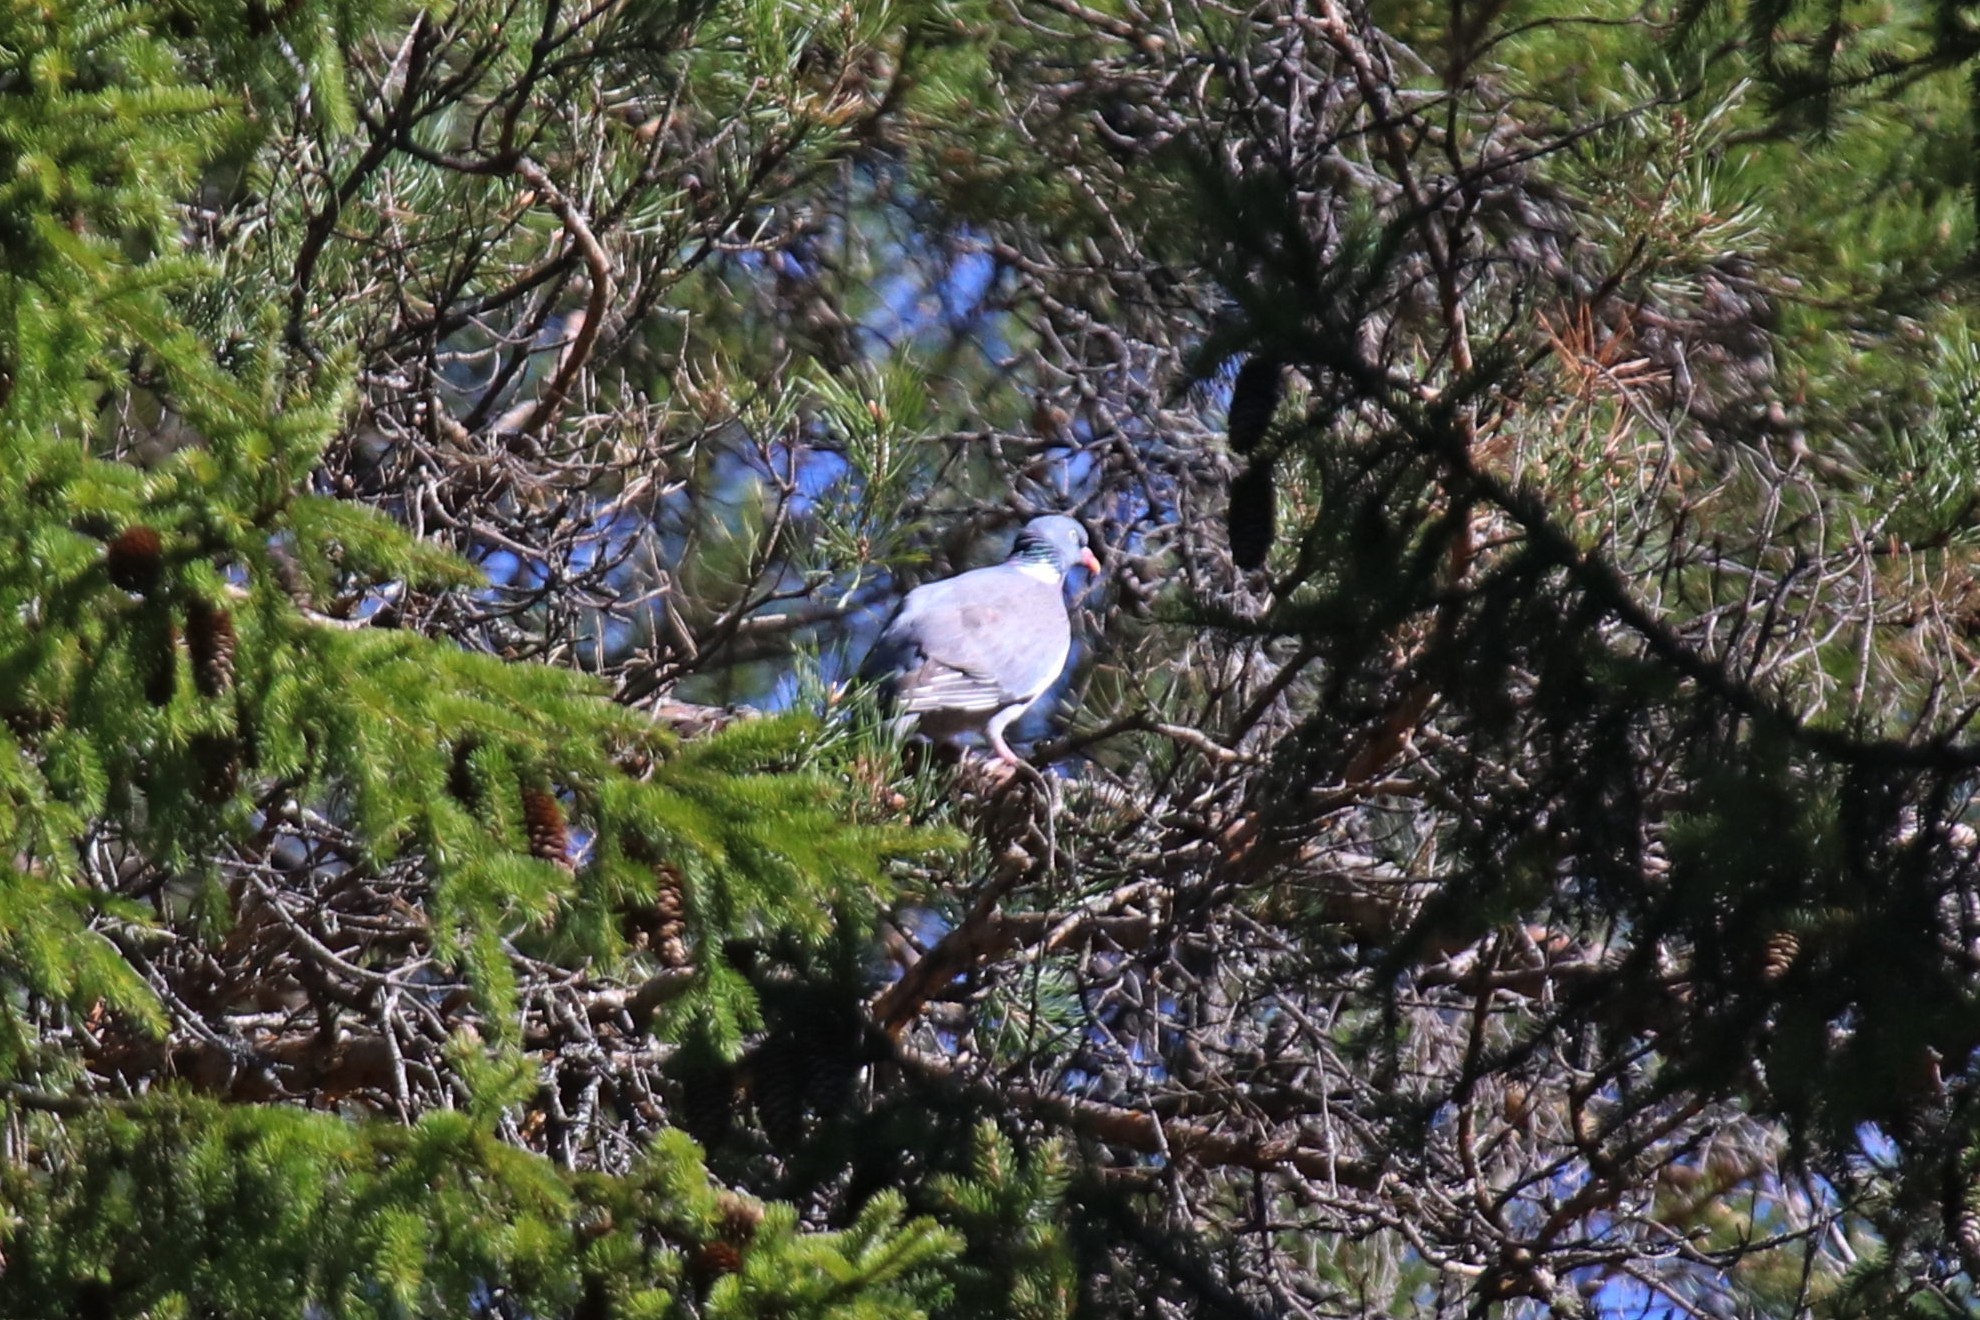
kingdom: Animalia
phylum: Chordata
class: Aves
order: Columbiformes
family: Columbidae
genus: Columba
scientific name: Columba palumbus
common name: Common wood pigeon
